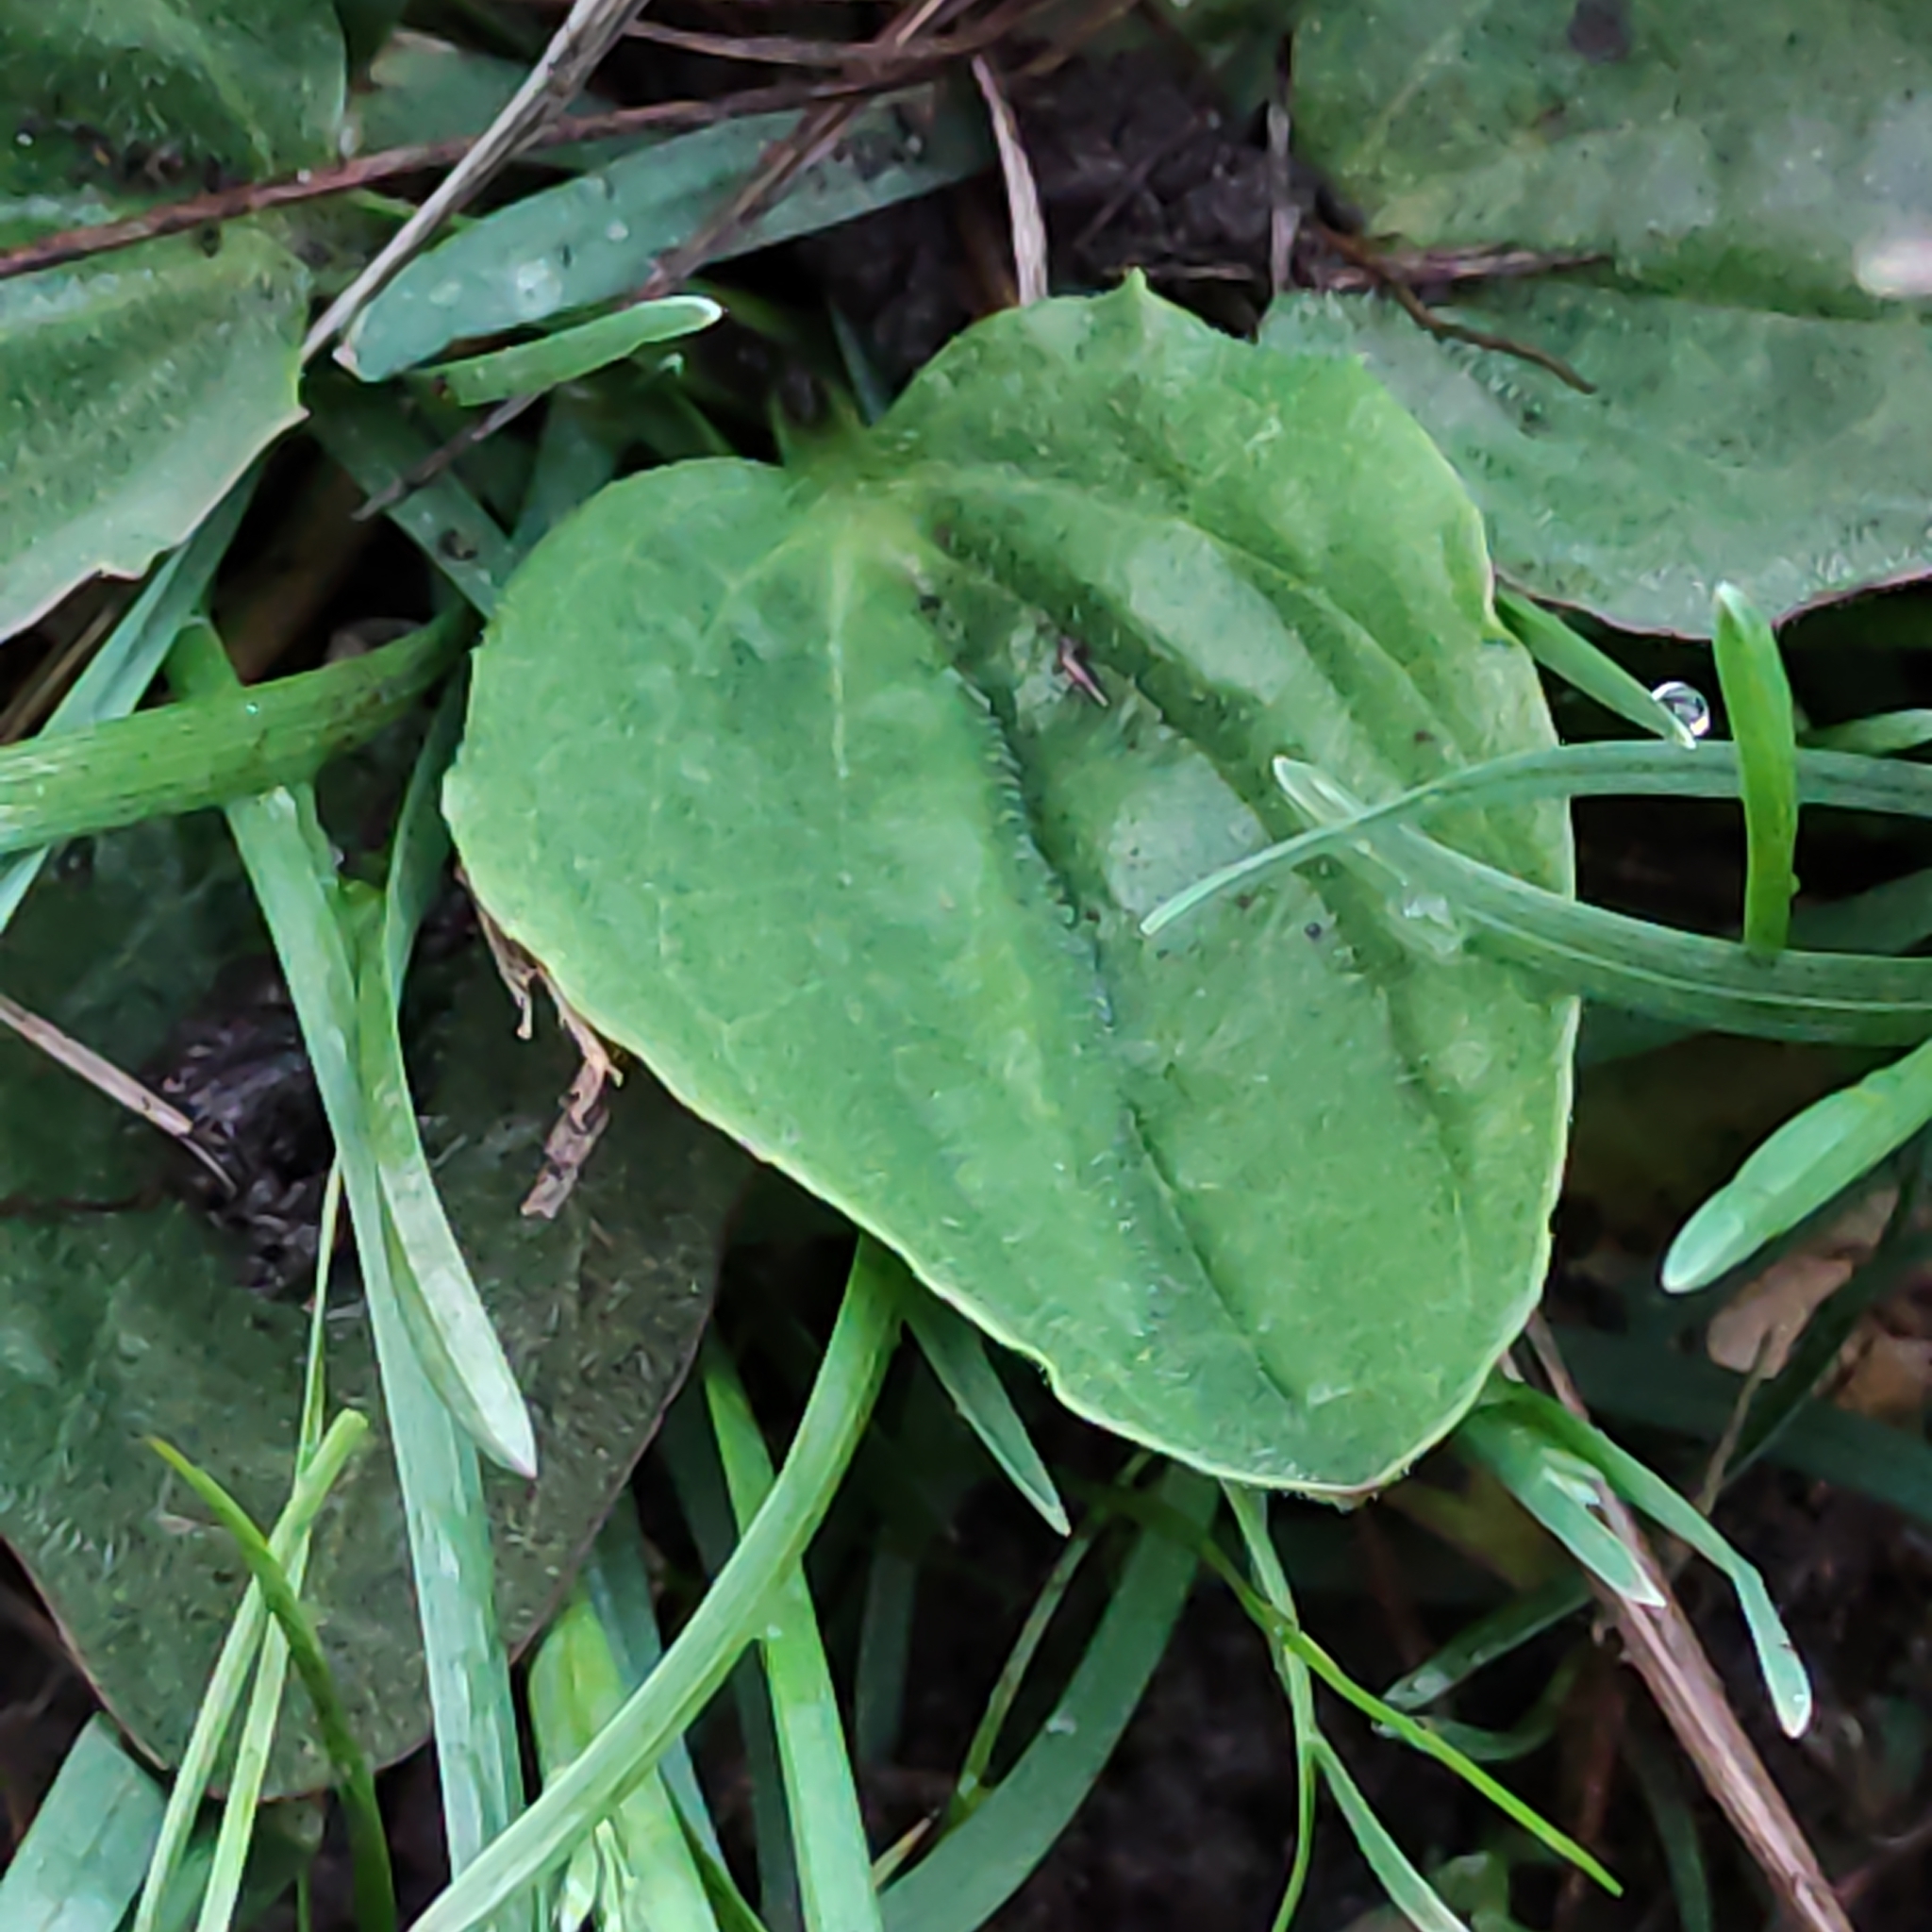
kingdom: Plantae
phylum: Tracheophyta
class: Magnoliopsida
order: Lamiales
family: Plantaginaceae
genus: Plantago
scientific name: Plantago major
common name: Common plantain
